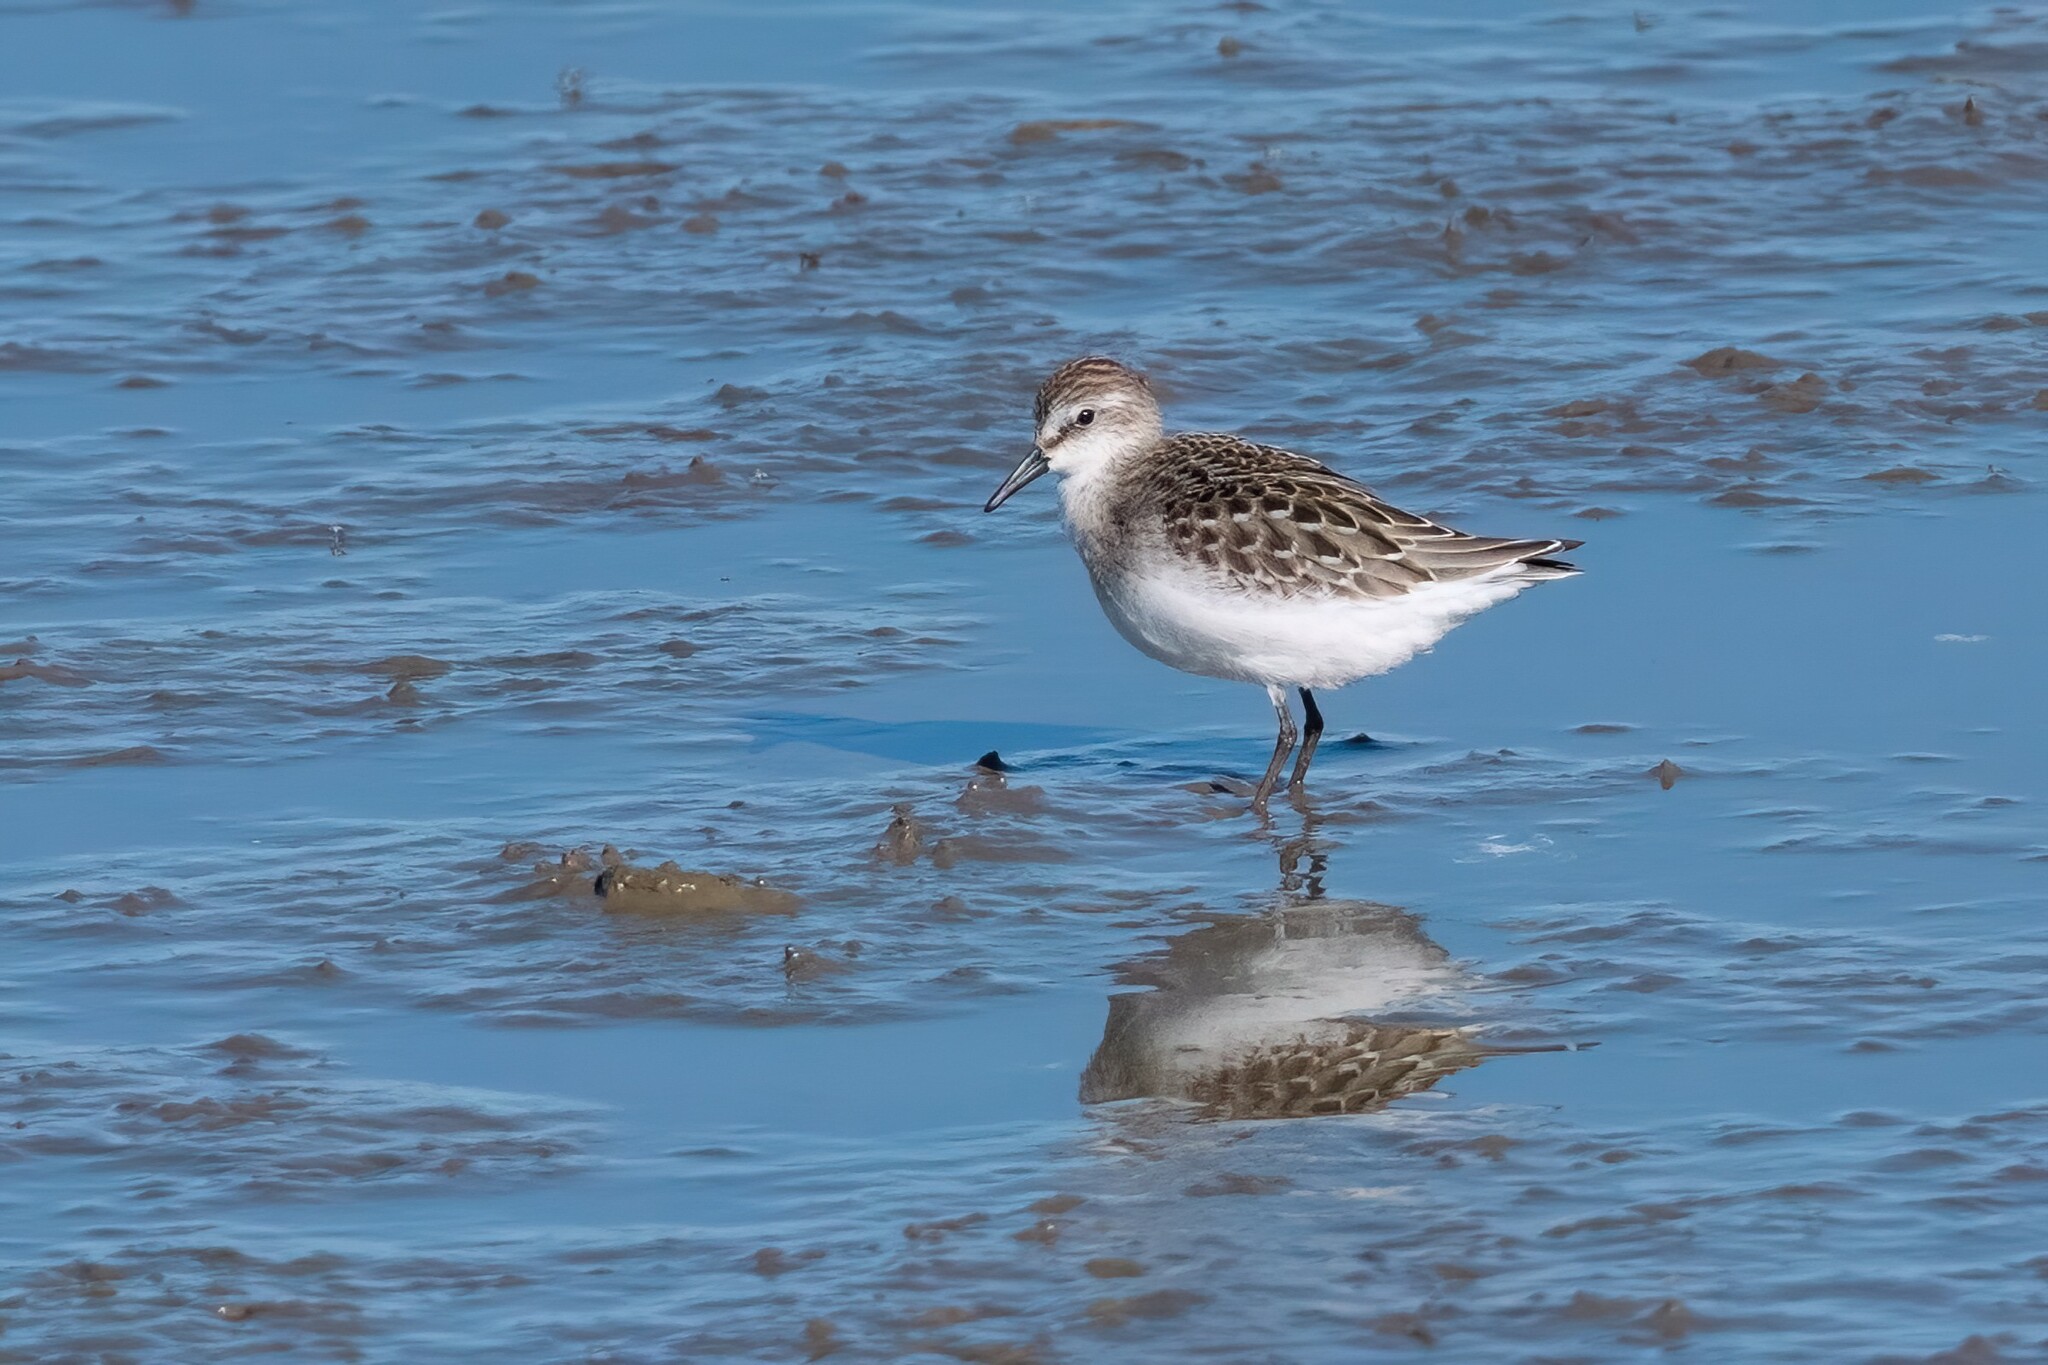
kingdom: Animalia
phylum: Chordata
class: Aves
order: Charadriiformes
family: Scolopacidae
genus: Calidris
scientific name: Calidris pusilla
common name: Semipalmated sandpiper
